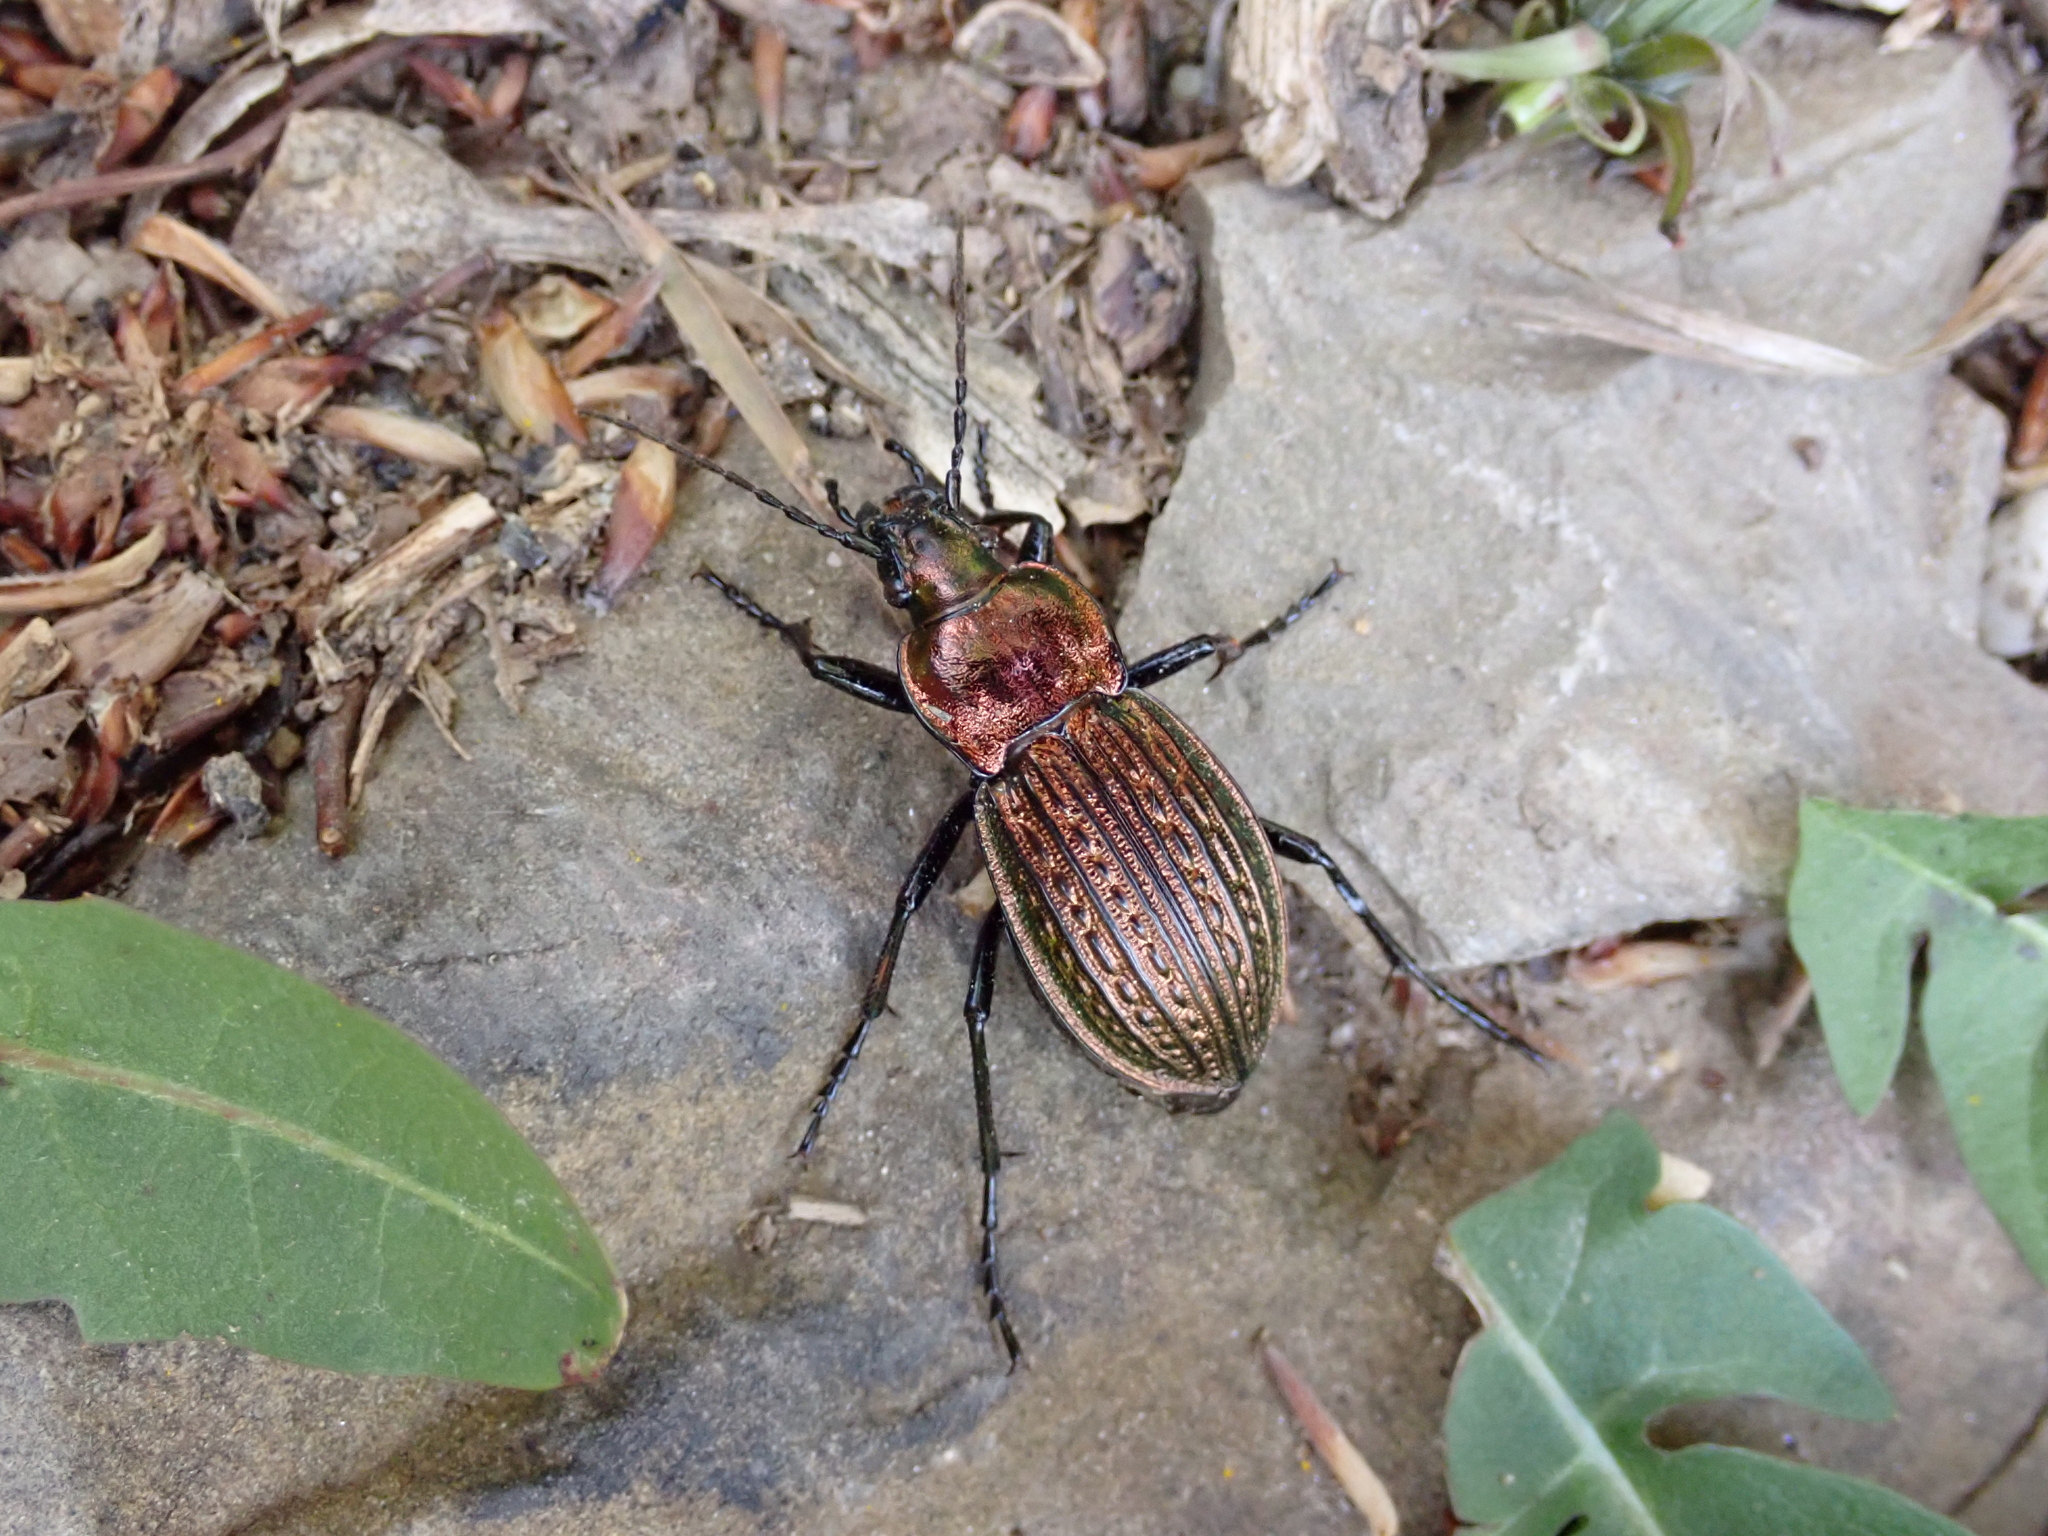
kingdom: Animalia
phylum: Arthropoda
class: Insecta
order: Coleoptera
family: Carabidae
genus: Carabus
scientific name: Carabus ulrichii
